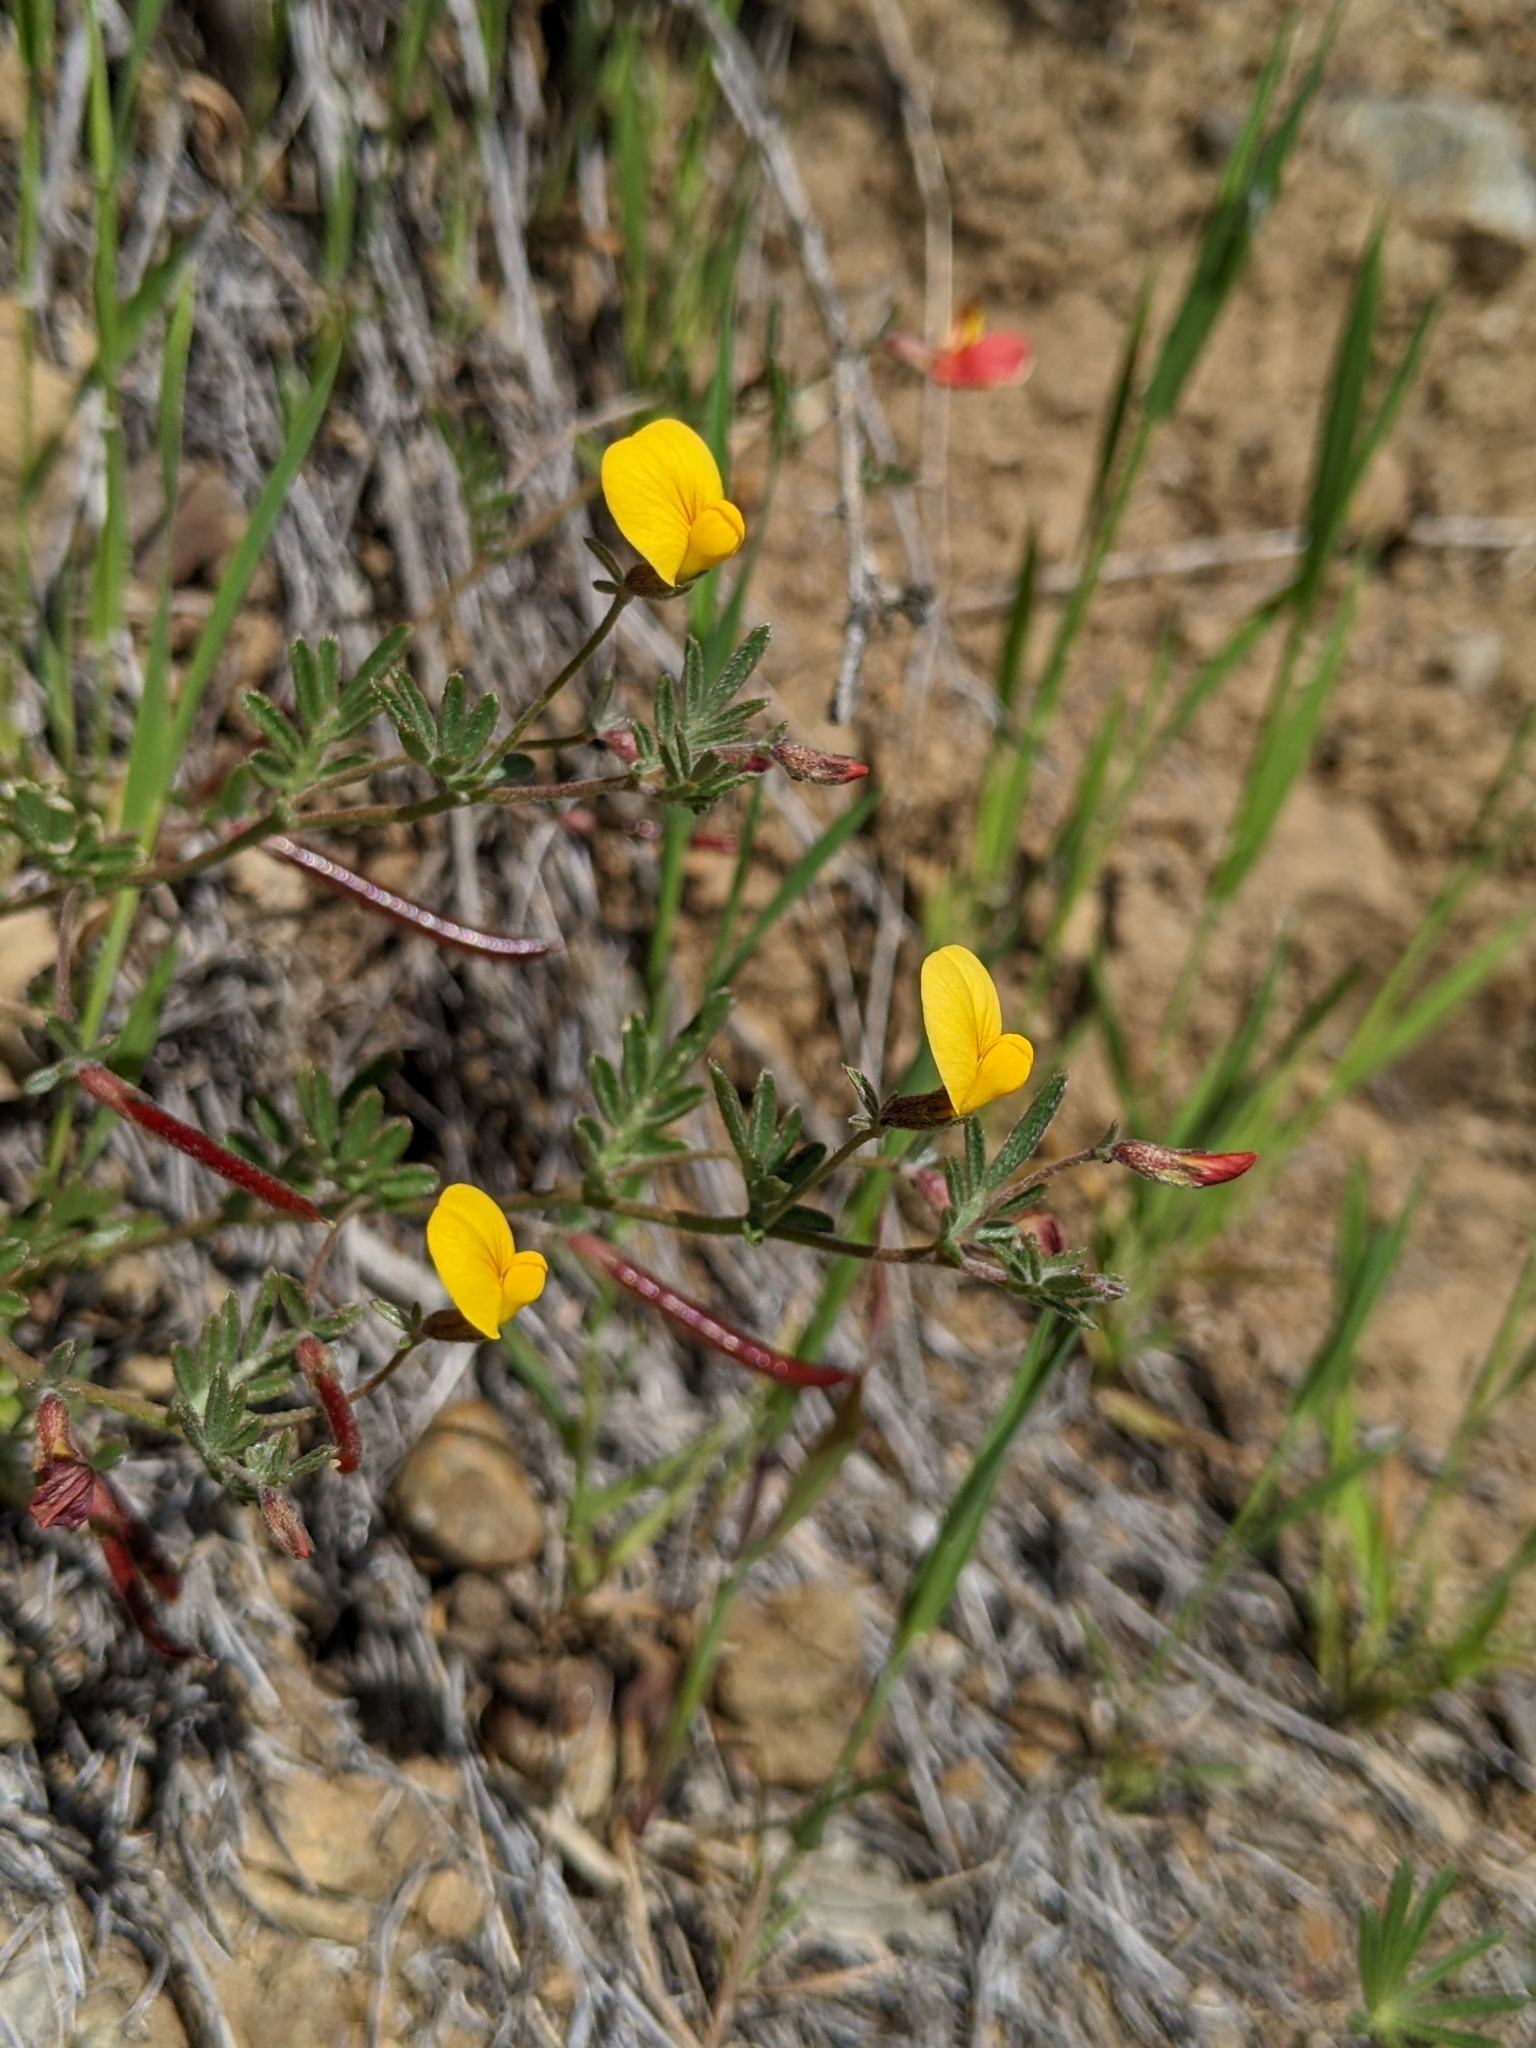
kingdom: Plantae
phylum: Tracheophyta
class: Magnoliopsida
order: Fabales
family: Fabaceae
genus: Acmispon
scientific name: Acmispon strigosus
